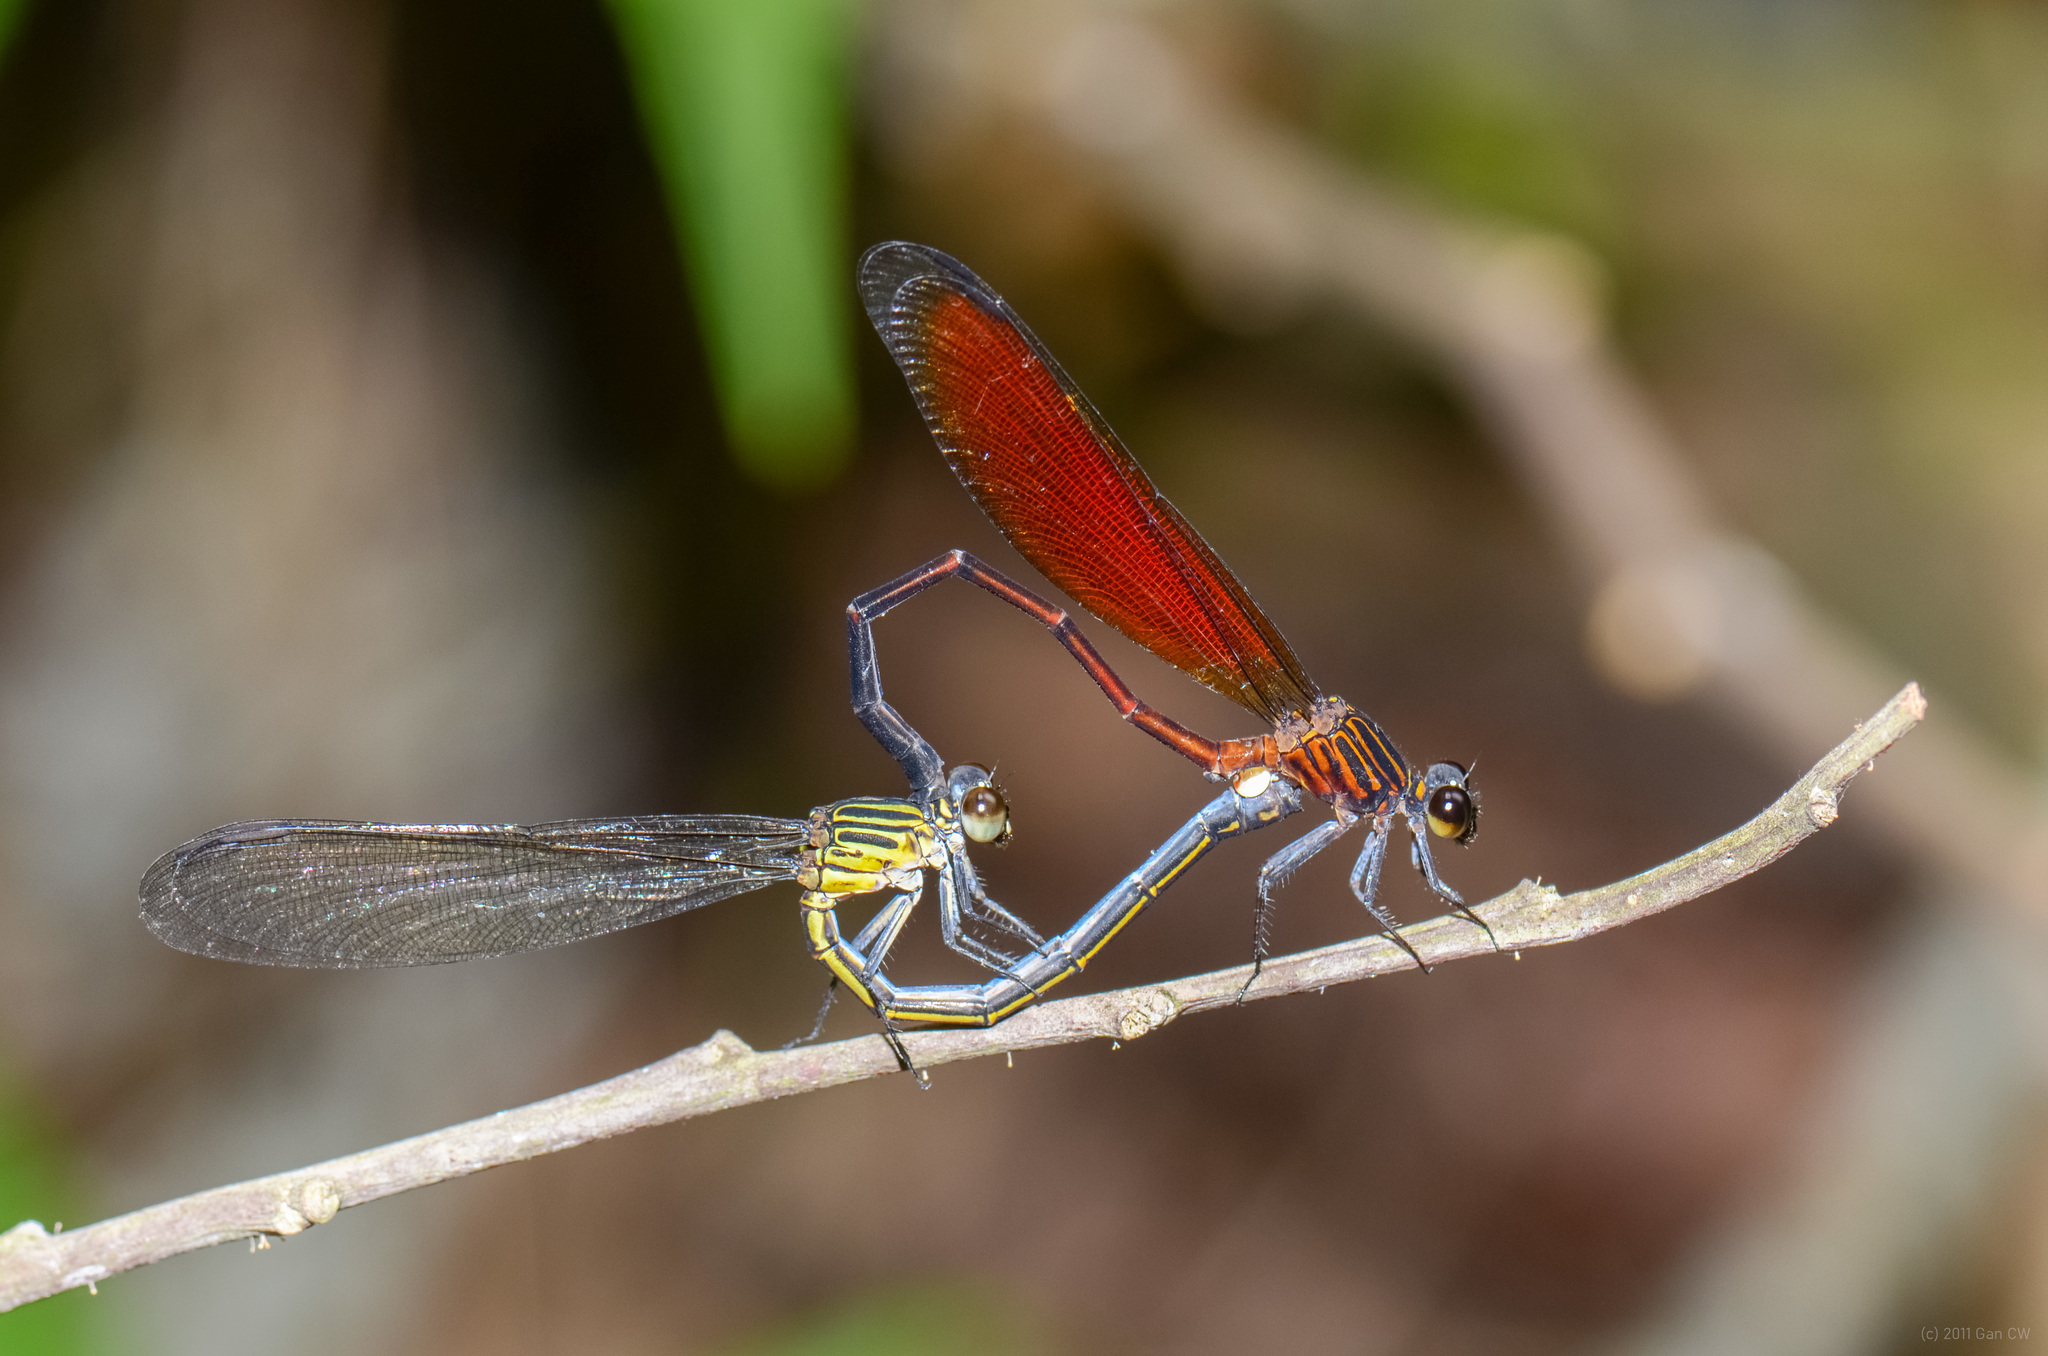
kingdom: Animalia
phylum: Arthropoda
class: Insecta
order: Odonata
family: Euphaeidae
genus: Euphaea
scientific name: Euphaea ochracea
